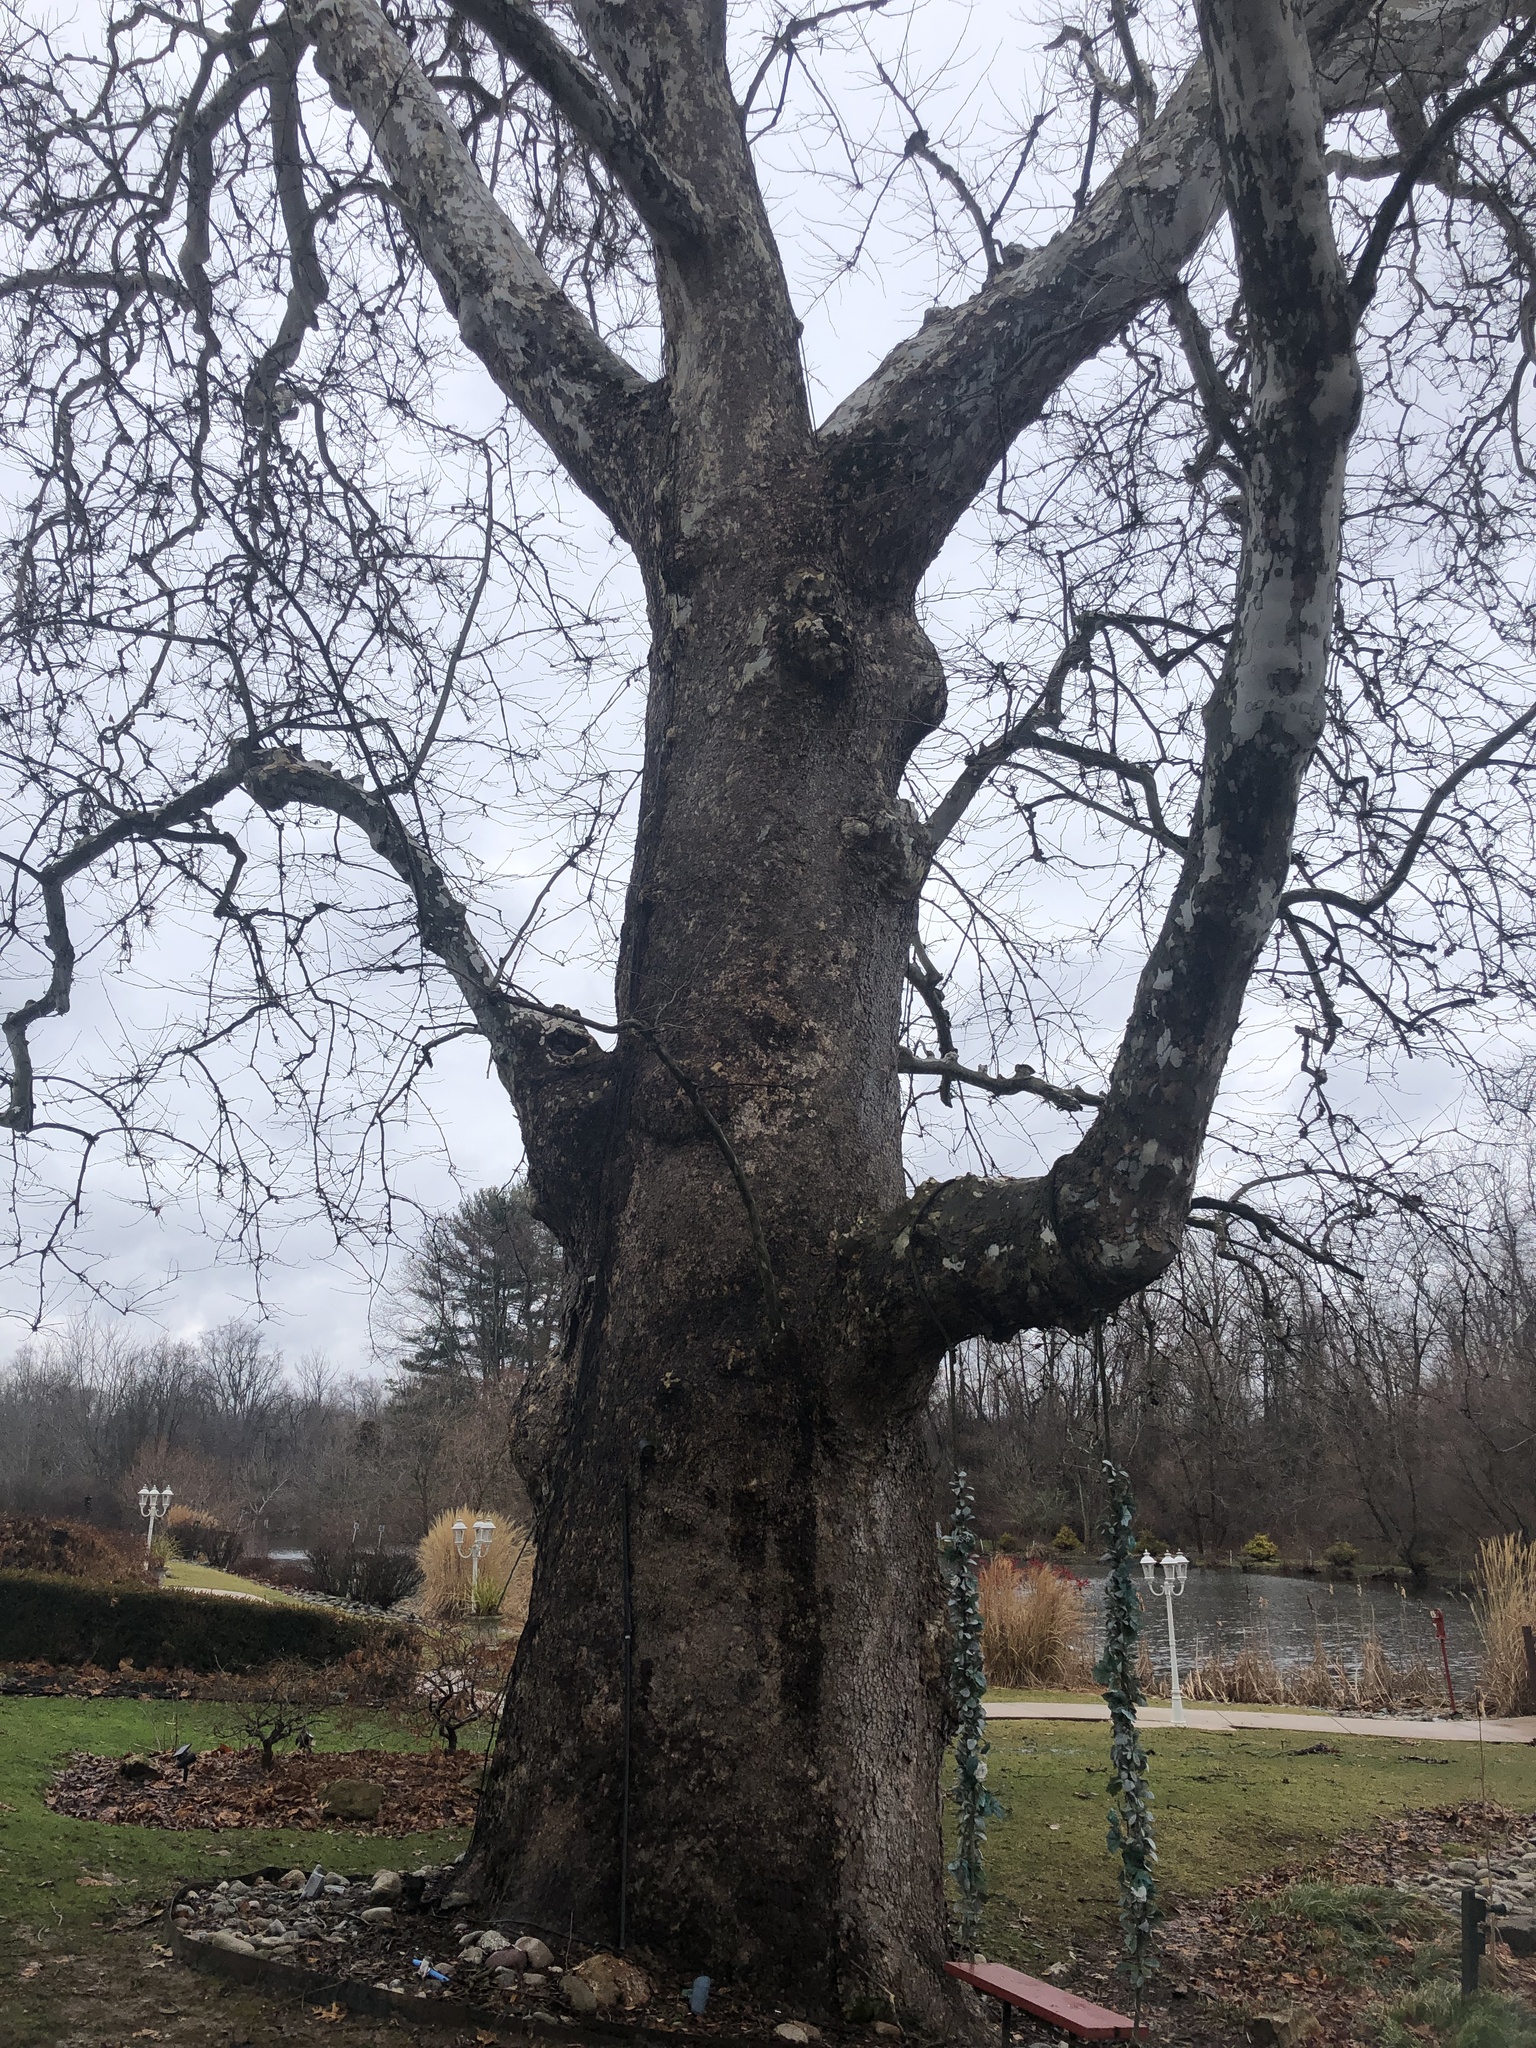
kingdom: Plantae
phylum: Tracheophyta
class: Magnoliopsida
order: Proteales
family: Platanaceae
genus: Platanus
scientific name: Platanus occidentalis
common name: American sycamore
